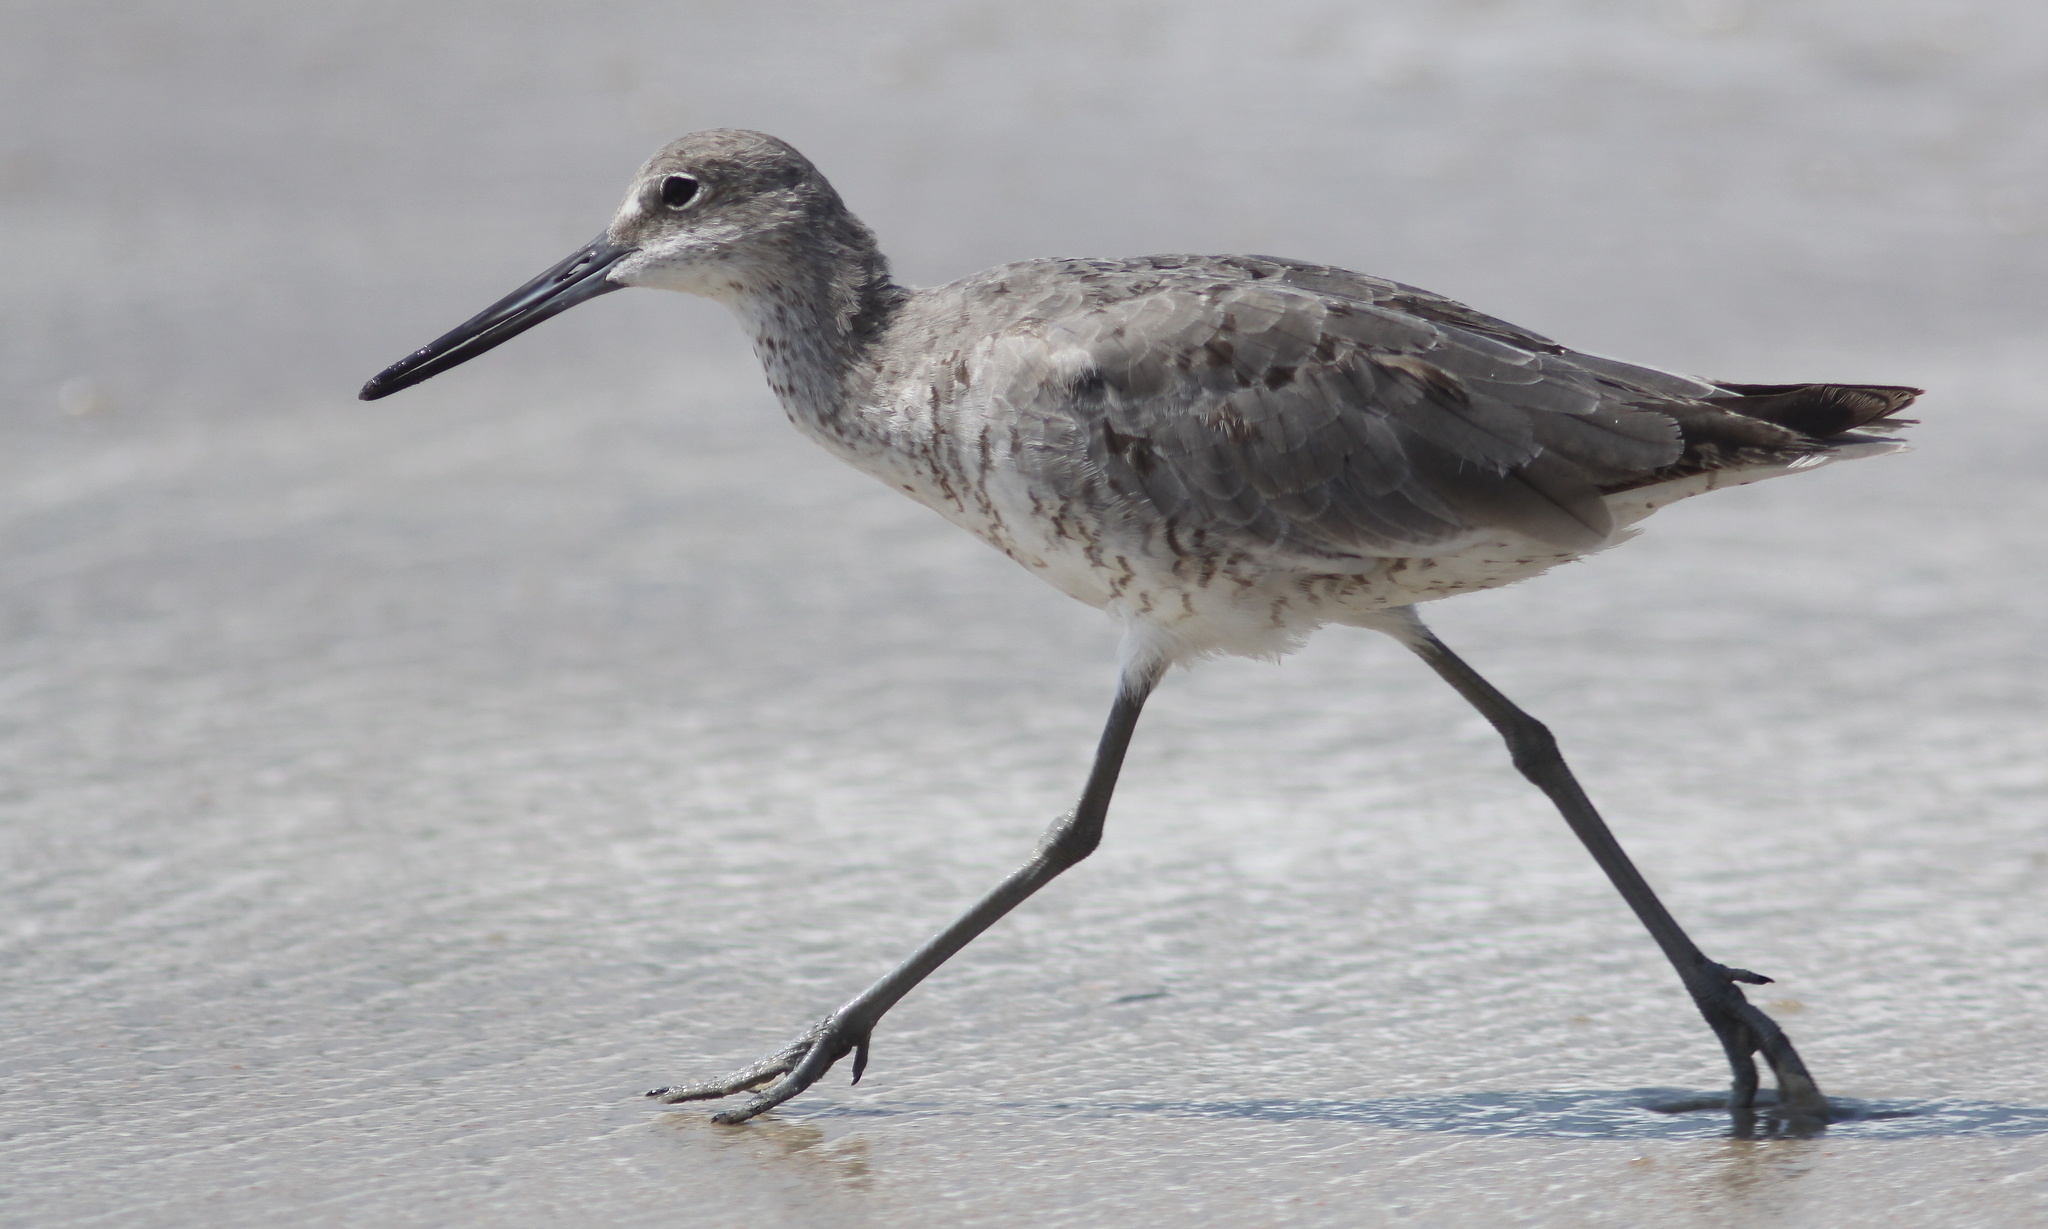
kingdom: Animalia
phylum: Chordata
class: Aves
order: Charadriiformes
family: Scolopacidae
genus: Tringa
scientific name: Tringa semipalmata
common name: Willet
